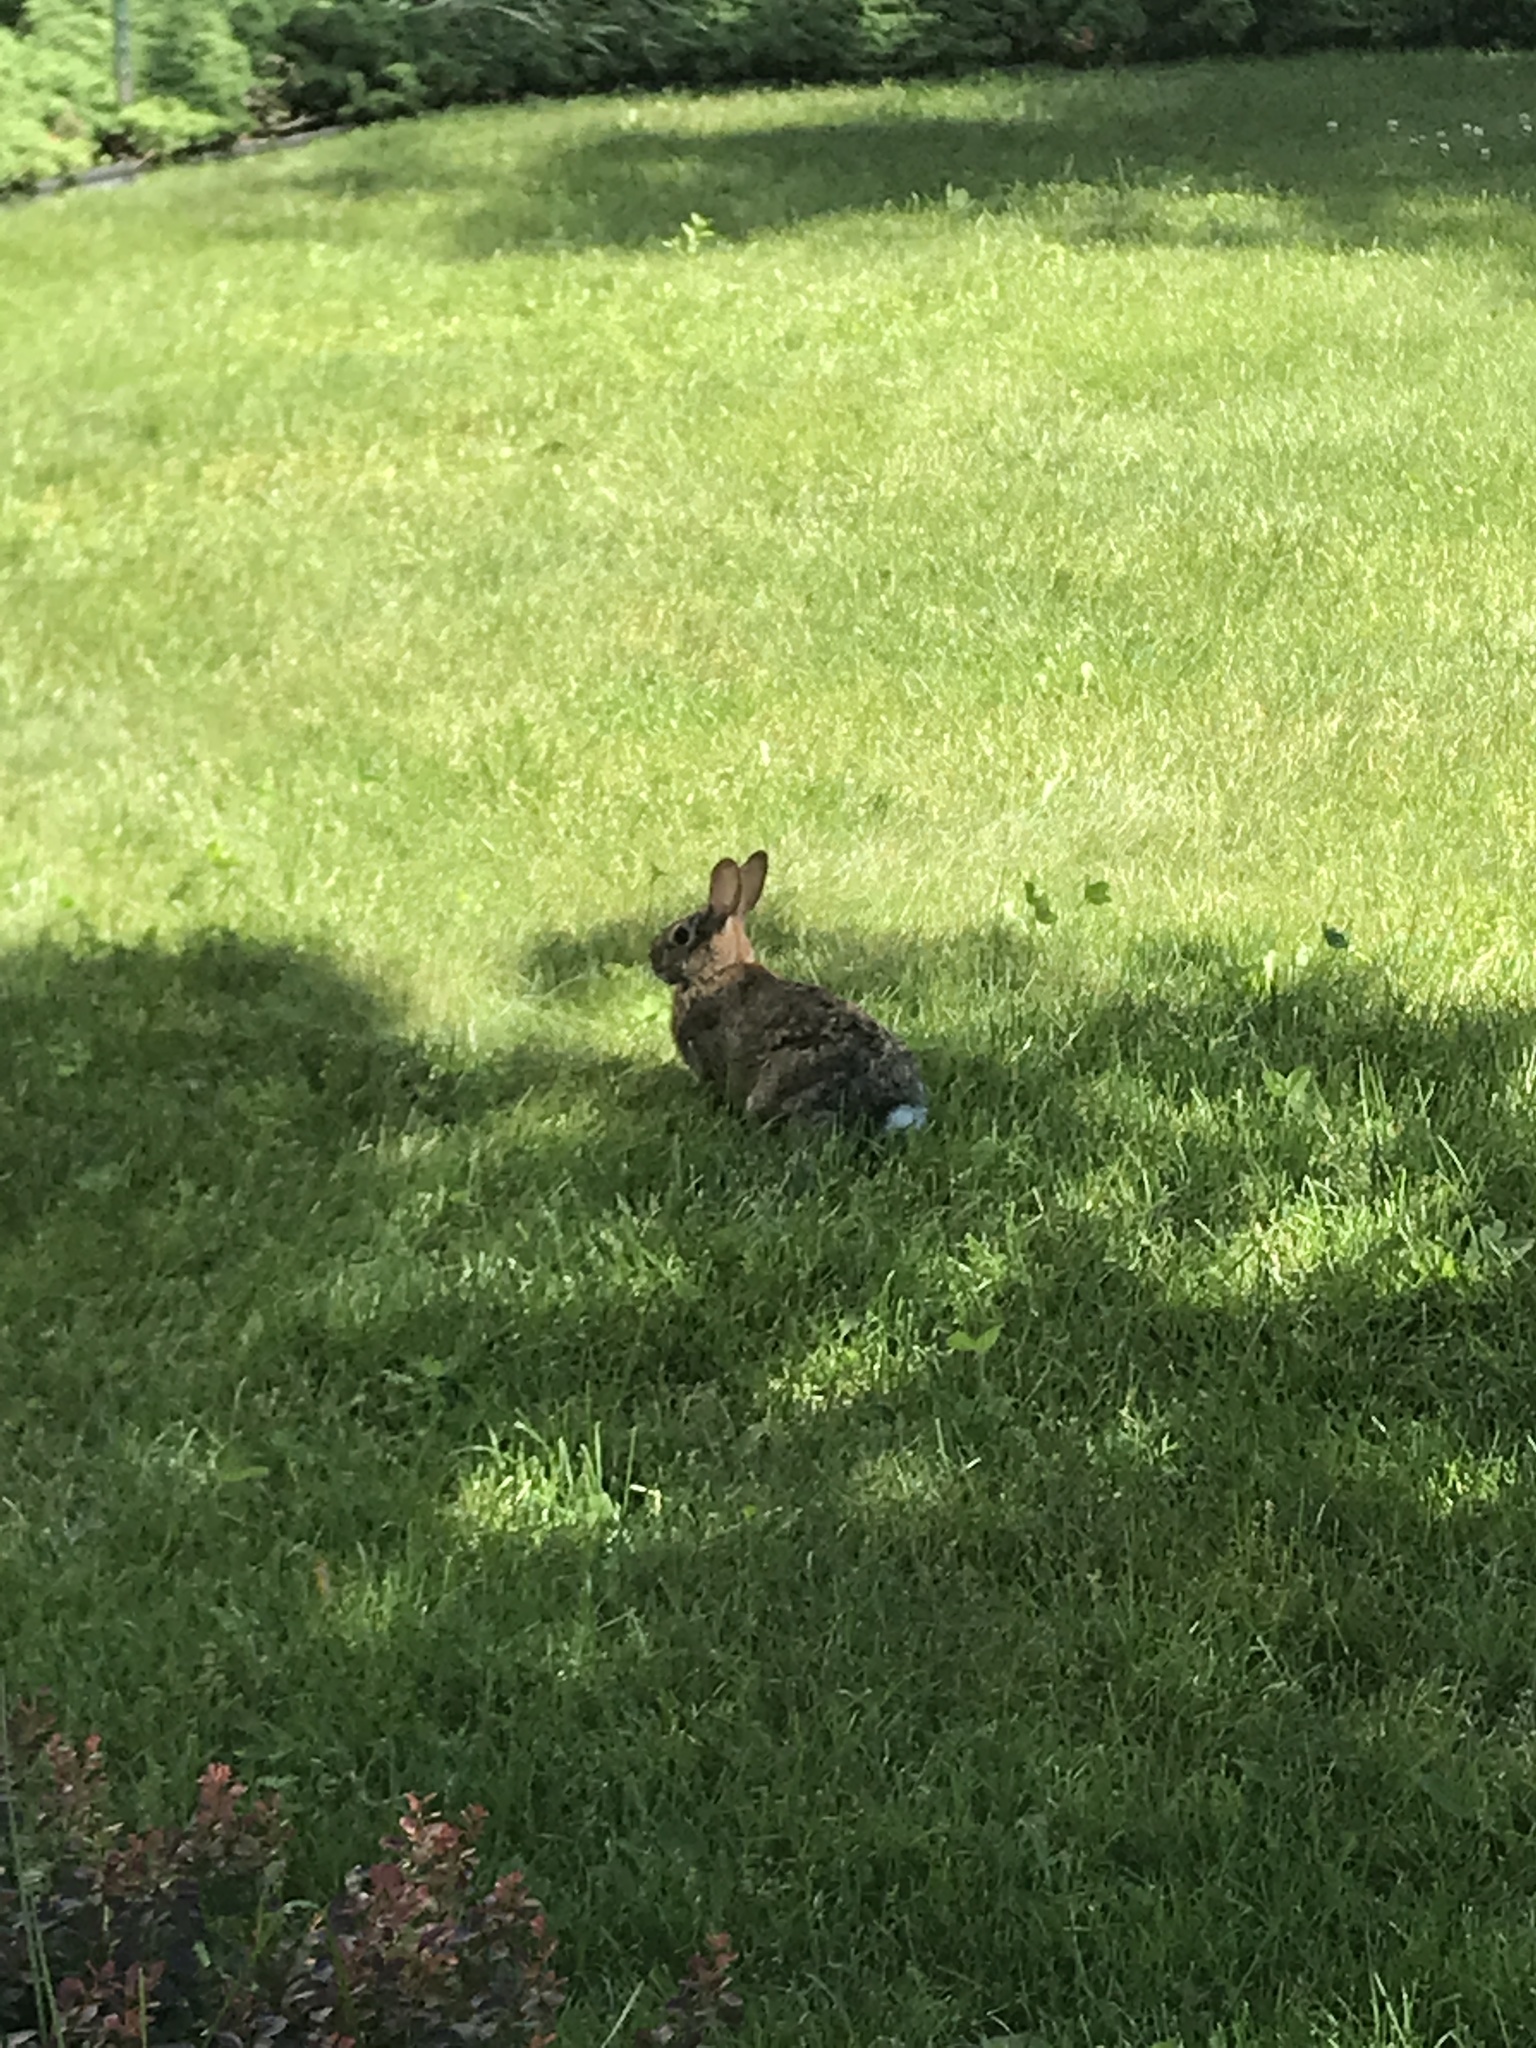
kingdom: Animalia
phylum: Chordata
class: Mammalia
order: Lagomorpha
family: Leporidae
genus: Sylvilagus
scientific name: Sylvilagus floridanus
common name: Eastern cottontail
